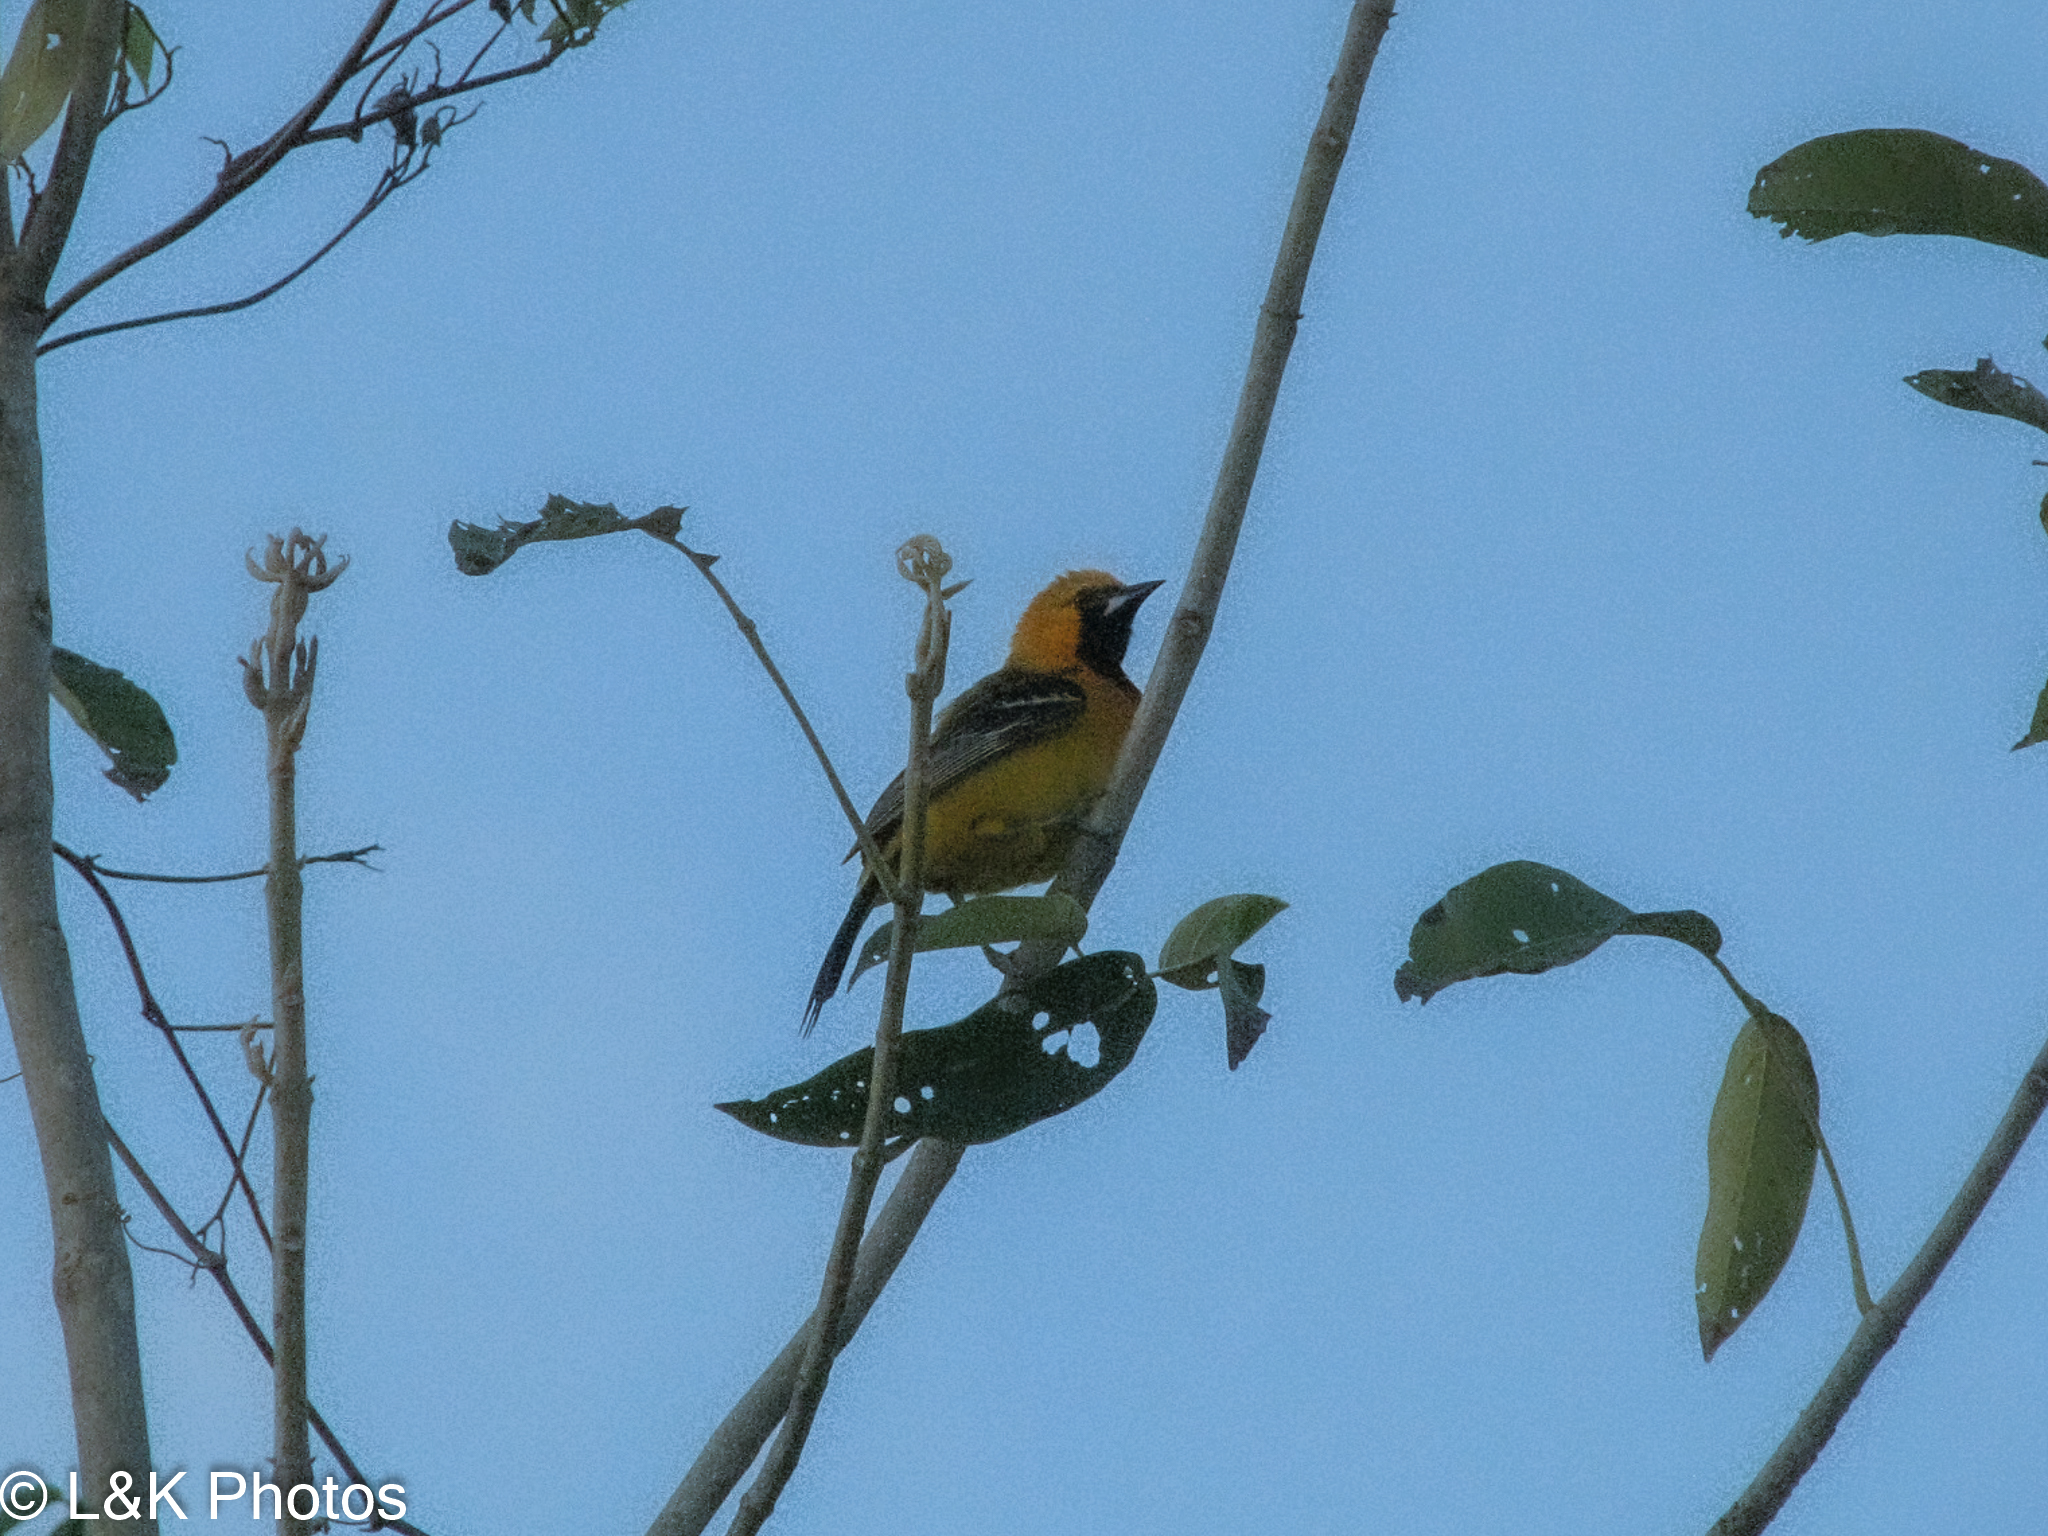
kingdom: Animalia
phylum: Chordata
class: Aves
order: Passeriformes
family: Icteridae
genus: Icterus
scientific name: Icterus auratus
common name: Orange oriole
